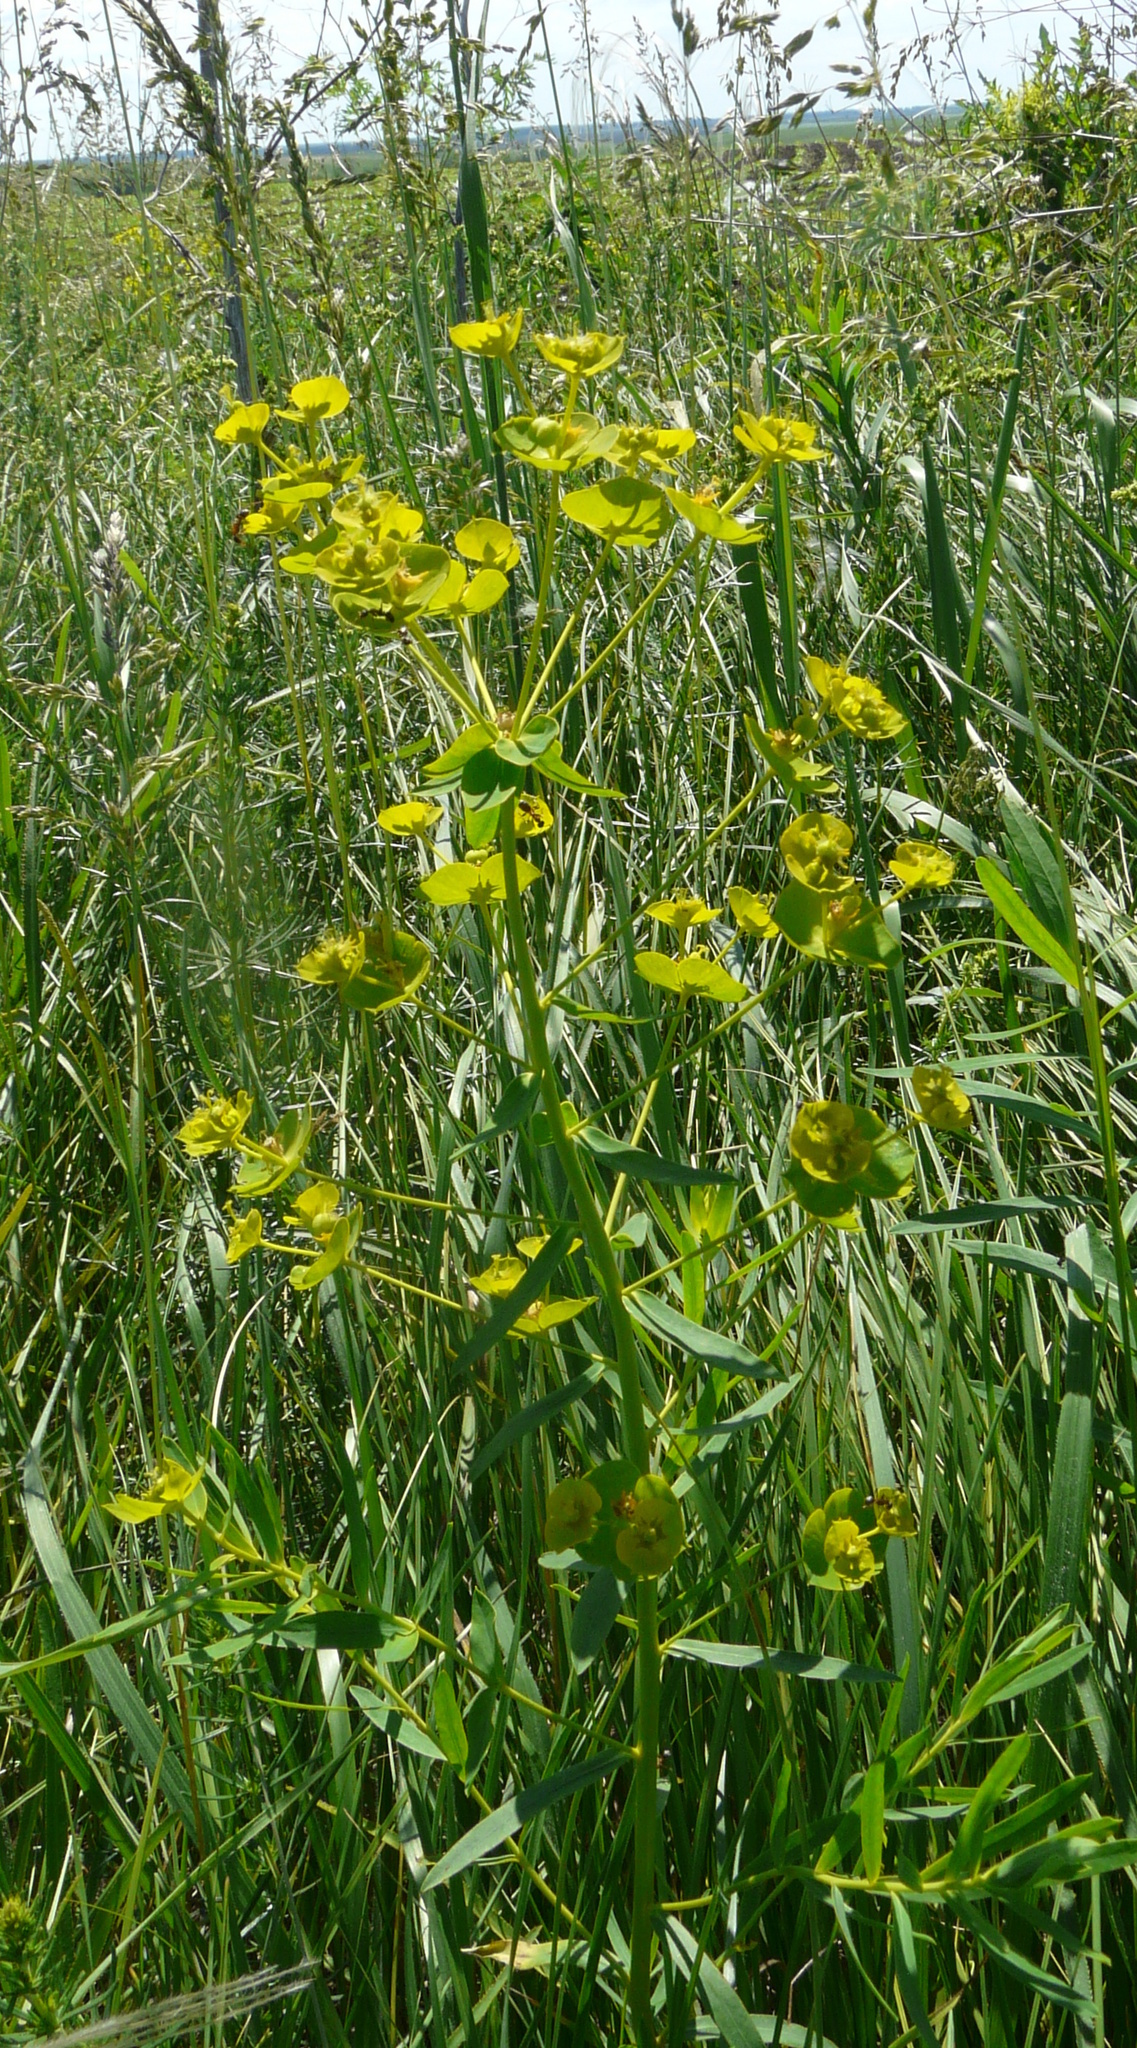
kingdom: Plantae
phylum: Tracheophyta
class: Magnoliopsida
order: Malpighiales
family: Euphorbiaceae
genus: Euphorbia
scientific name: Euphorbia virgata
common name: Leafy spurge
